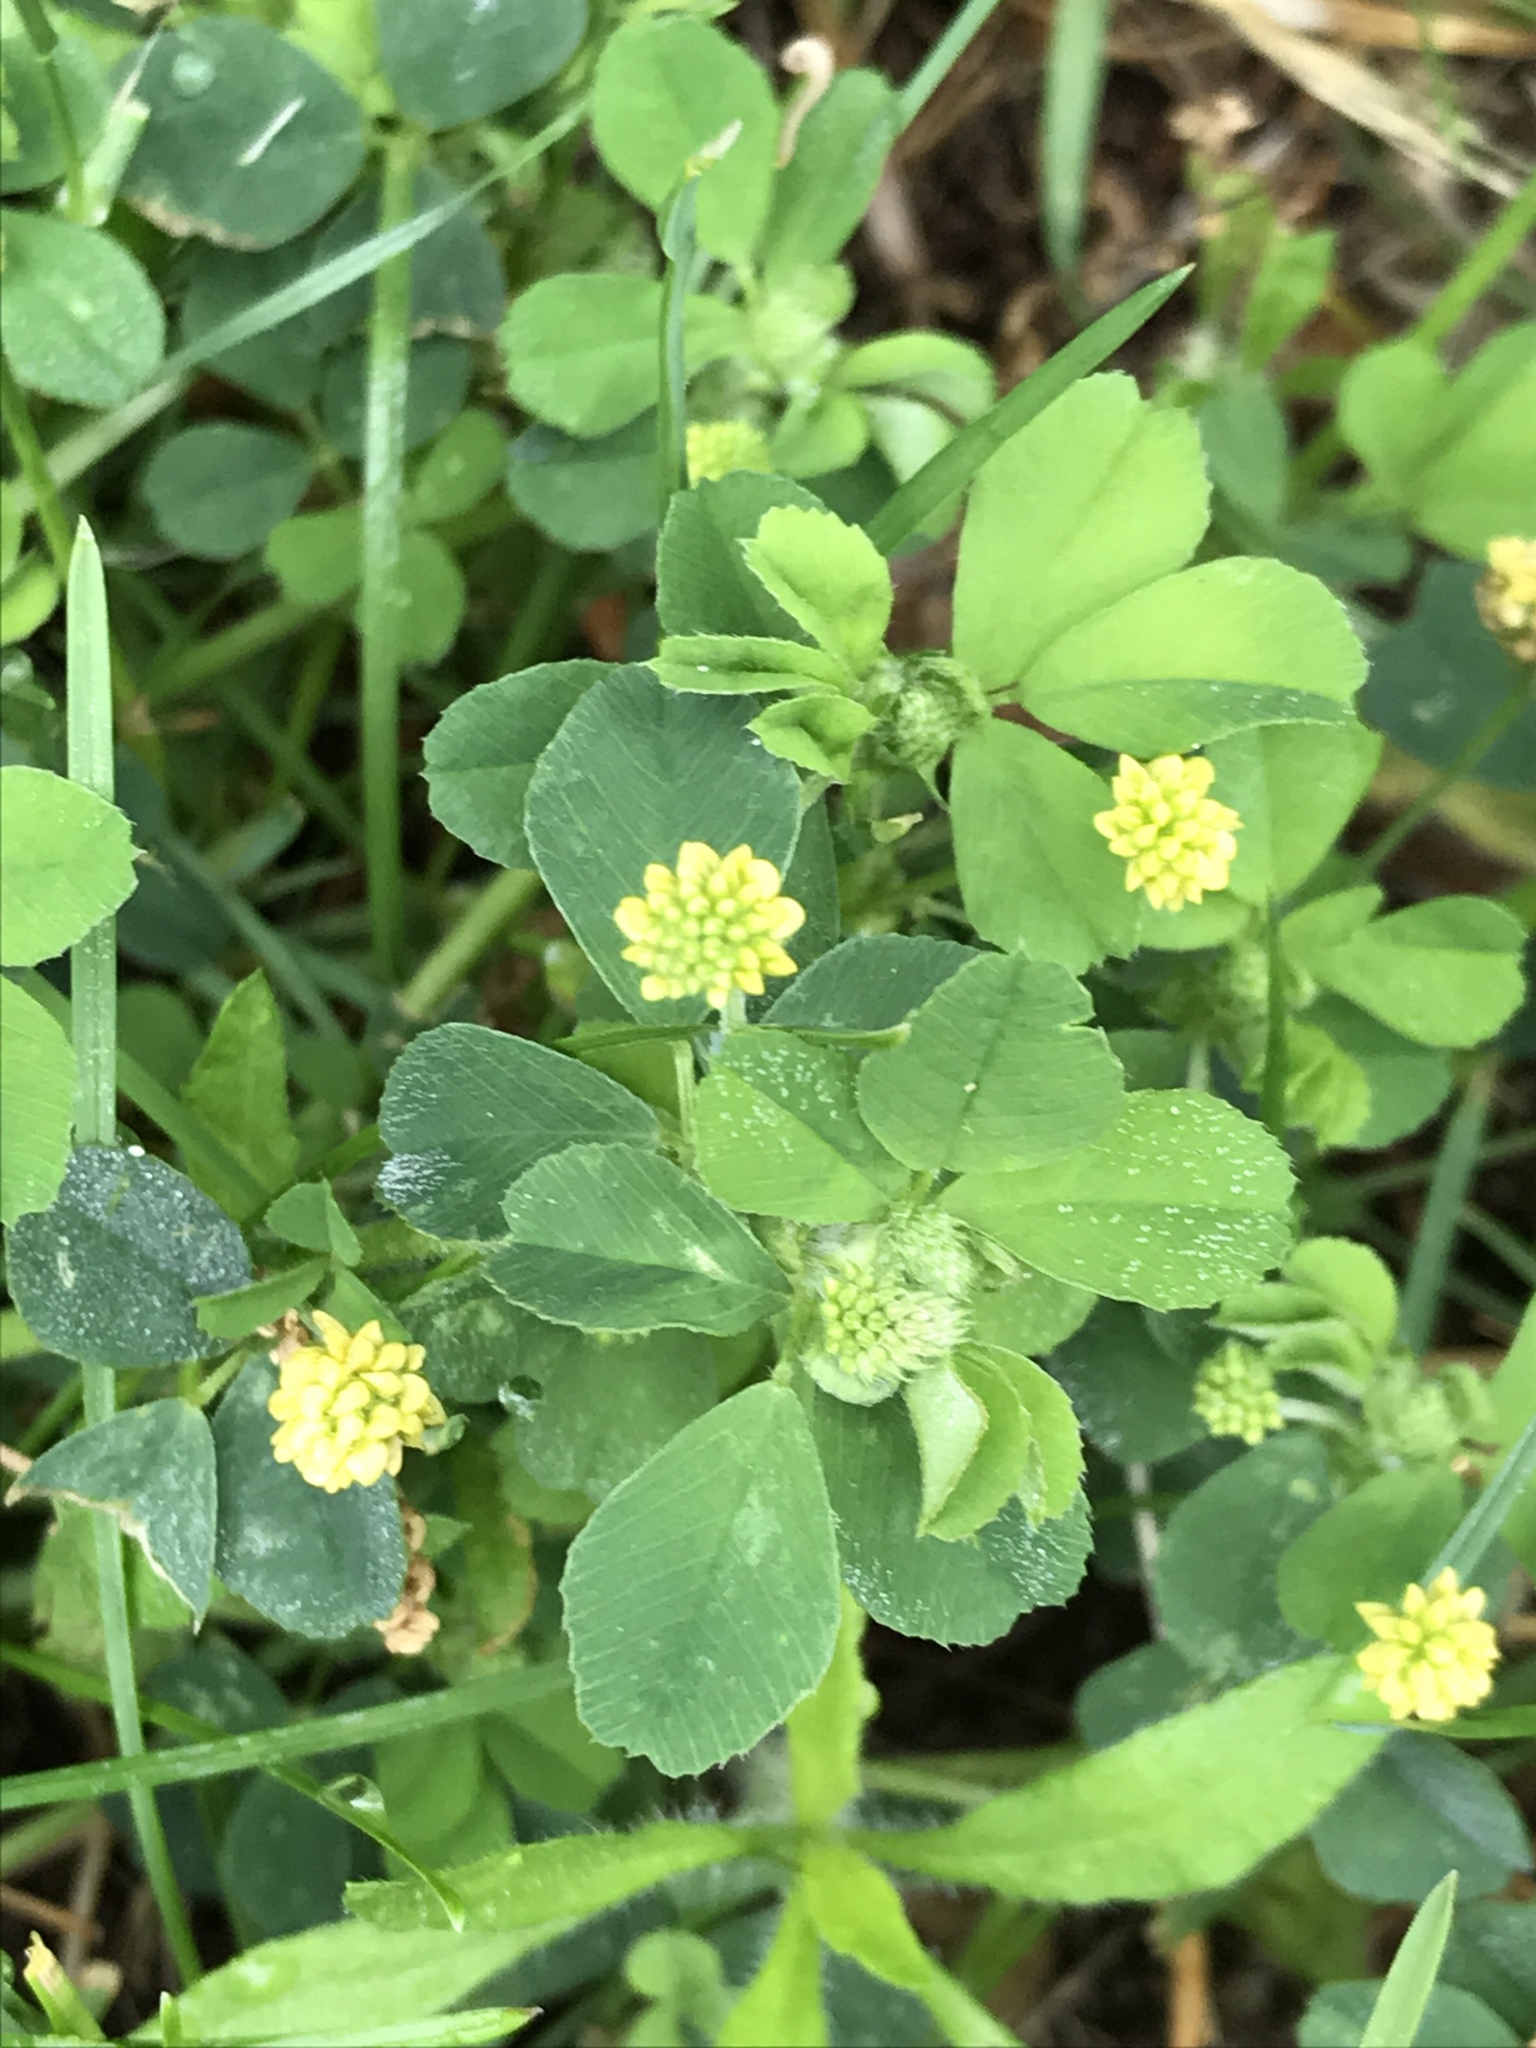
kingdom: Plantae
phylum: Tracheophyta
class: Magnoliopsida
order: Fabales
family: Fabaceae
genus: Medicago
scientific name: Medicago lupulina
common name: Black medick
